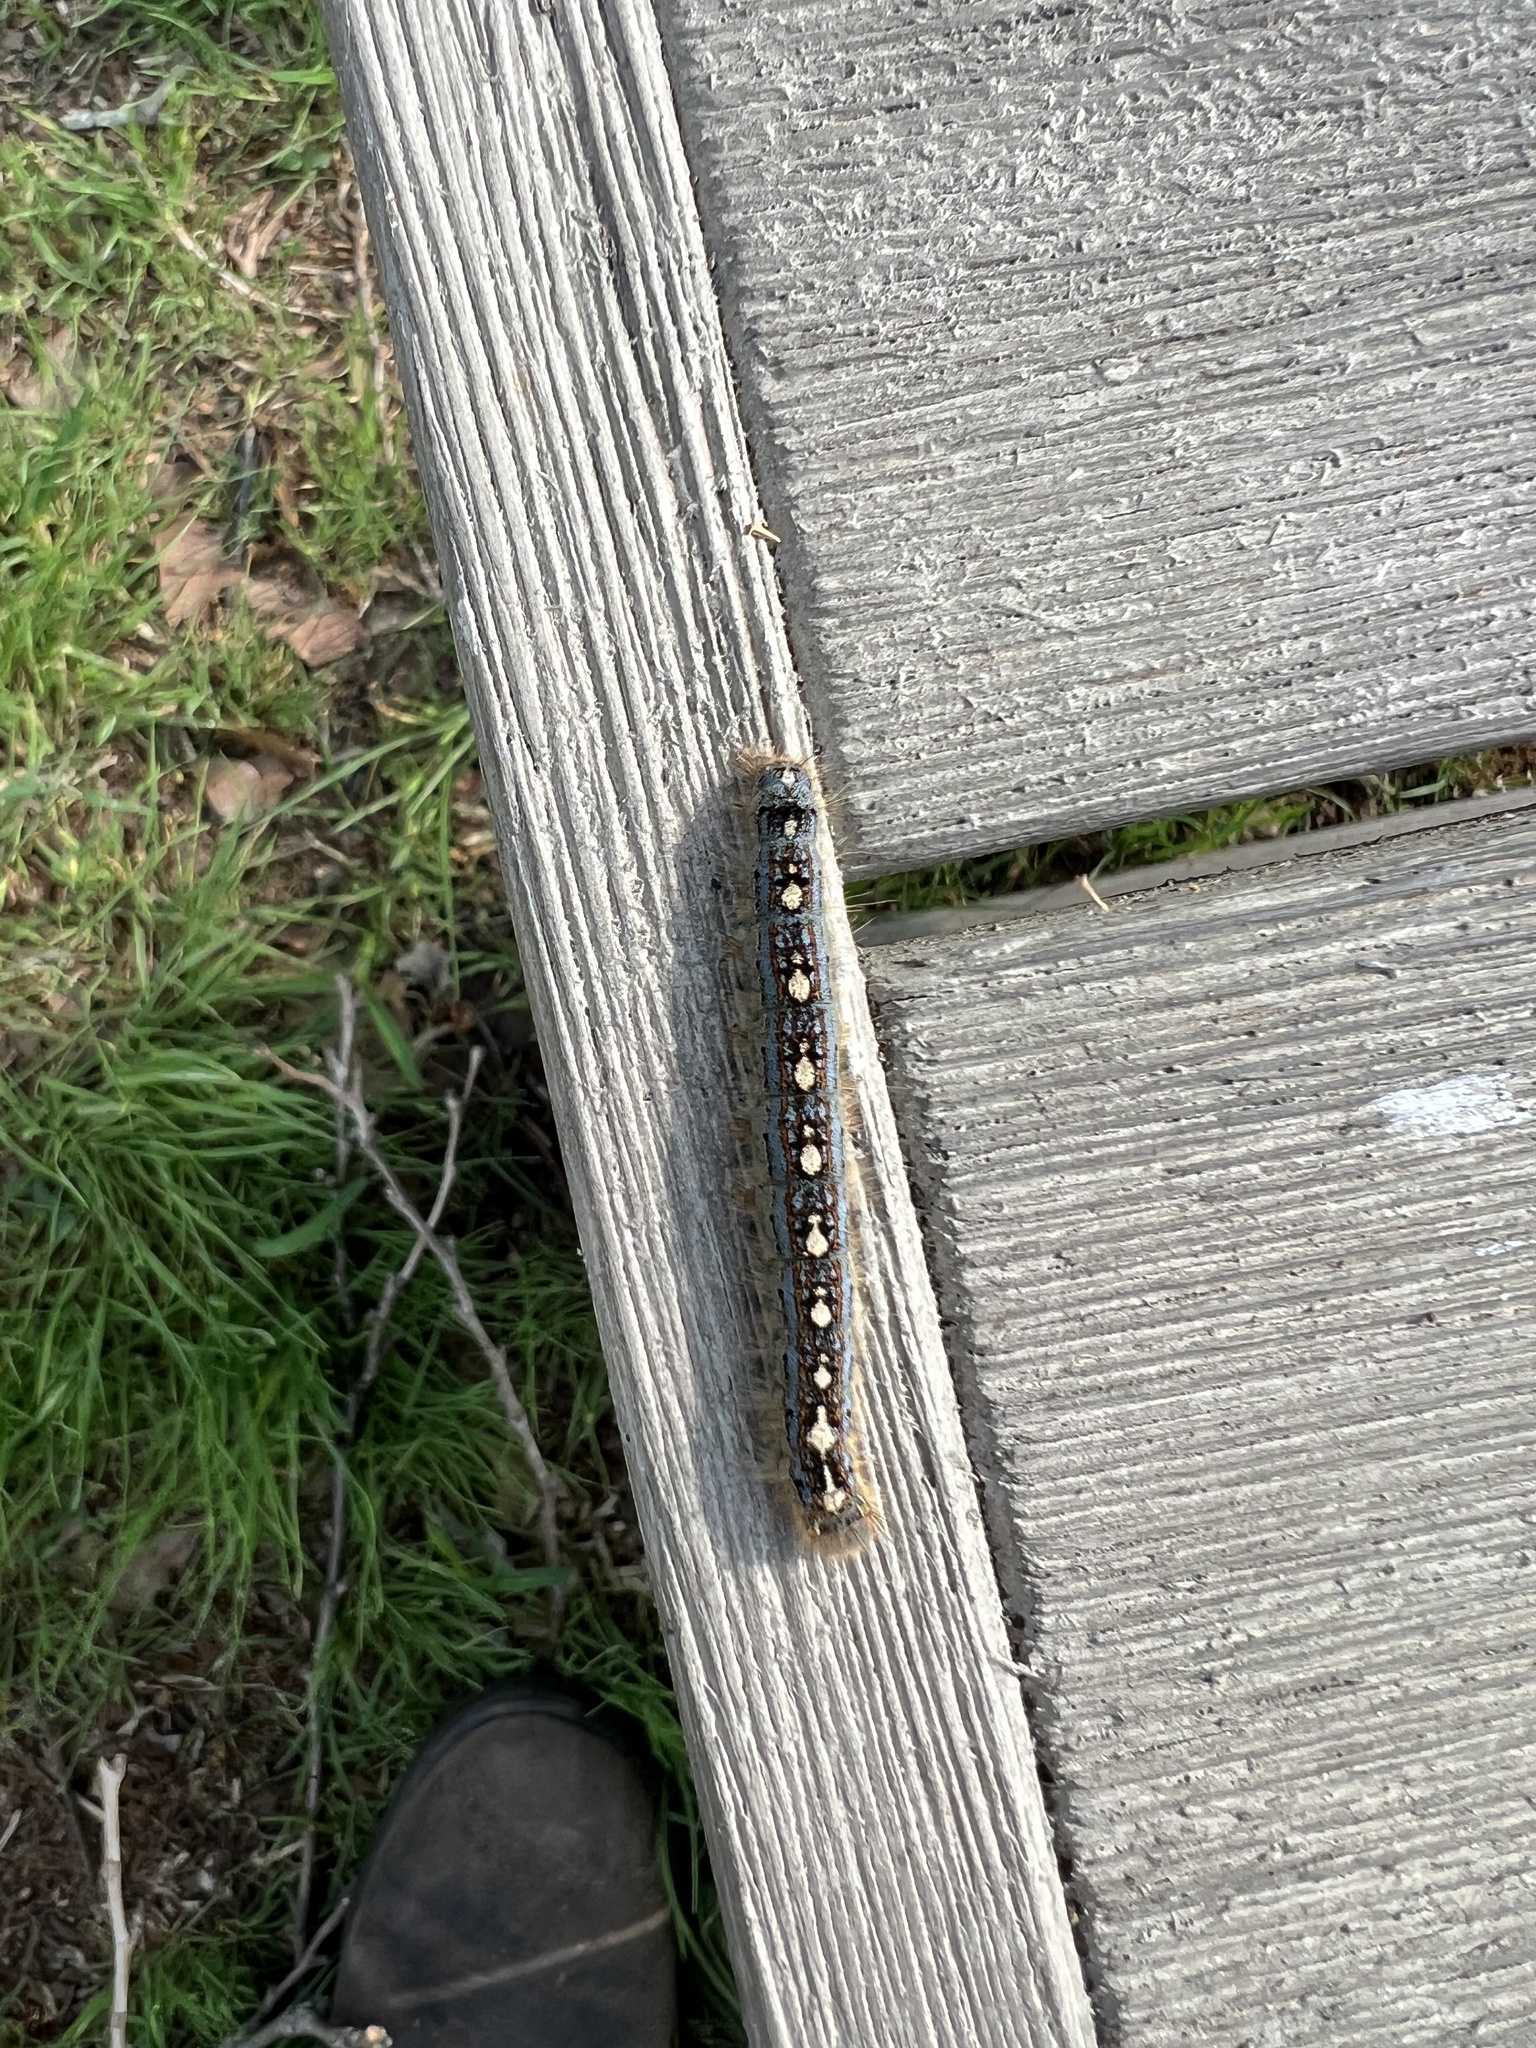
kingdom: Animalia
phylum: Arthropoda
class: Insecta
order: Lepidoptera
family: Lasiocampidae
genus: Malacosoma
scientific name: Malacosoma disstria
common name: Forest tent caterpillar
